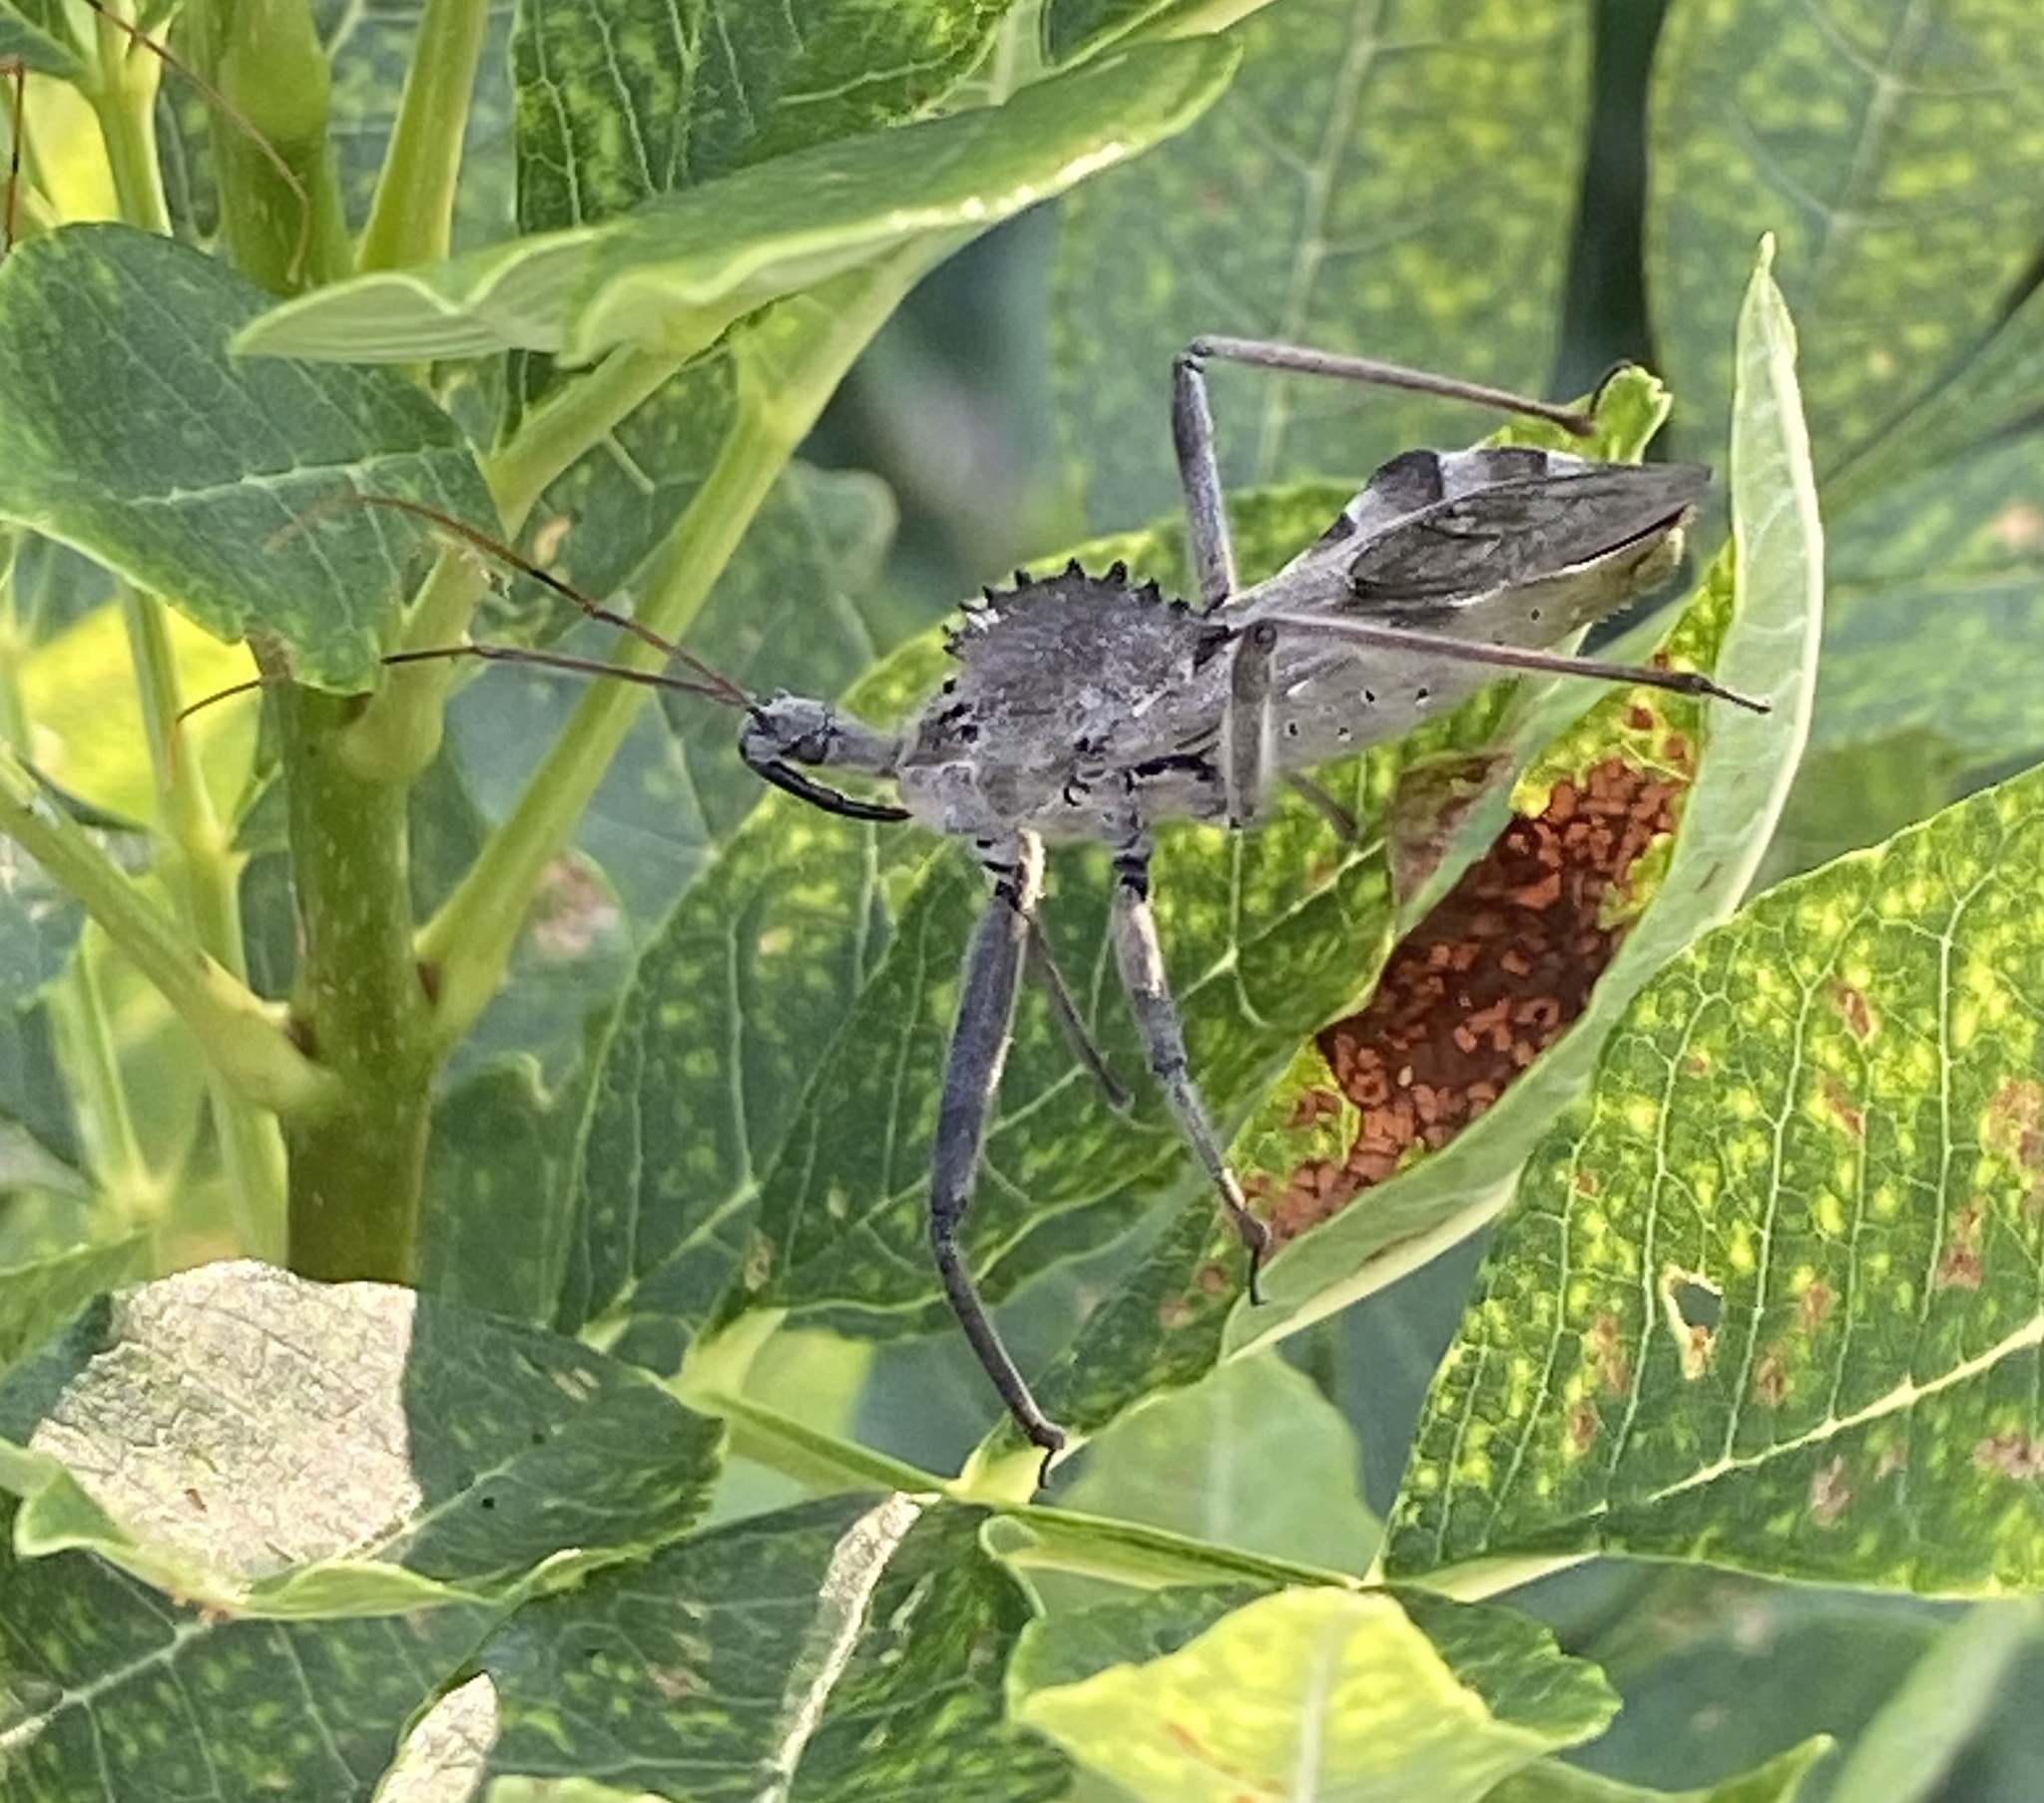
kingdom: Animalia
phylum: Arthropoda
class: Insecta
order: Hemiptera
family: Reduviidae
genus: Arilus
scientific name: Arilus cristatus
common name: North american wheel bug
